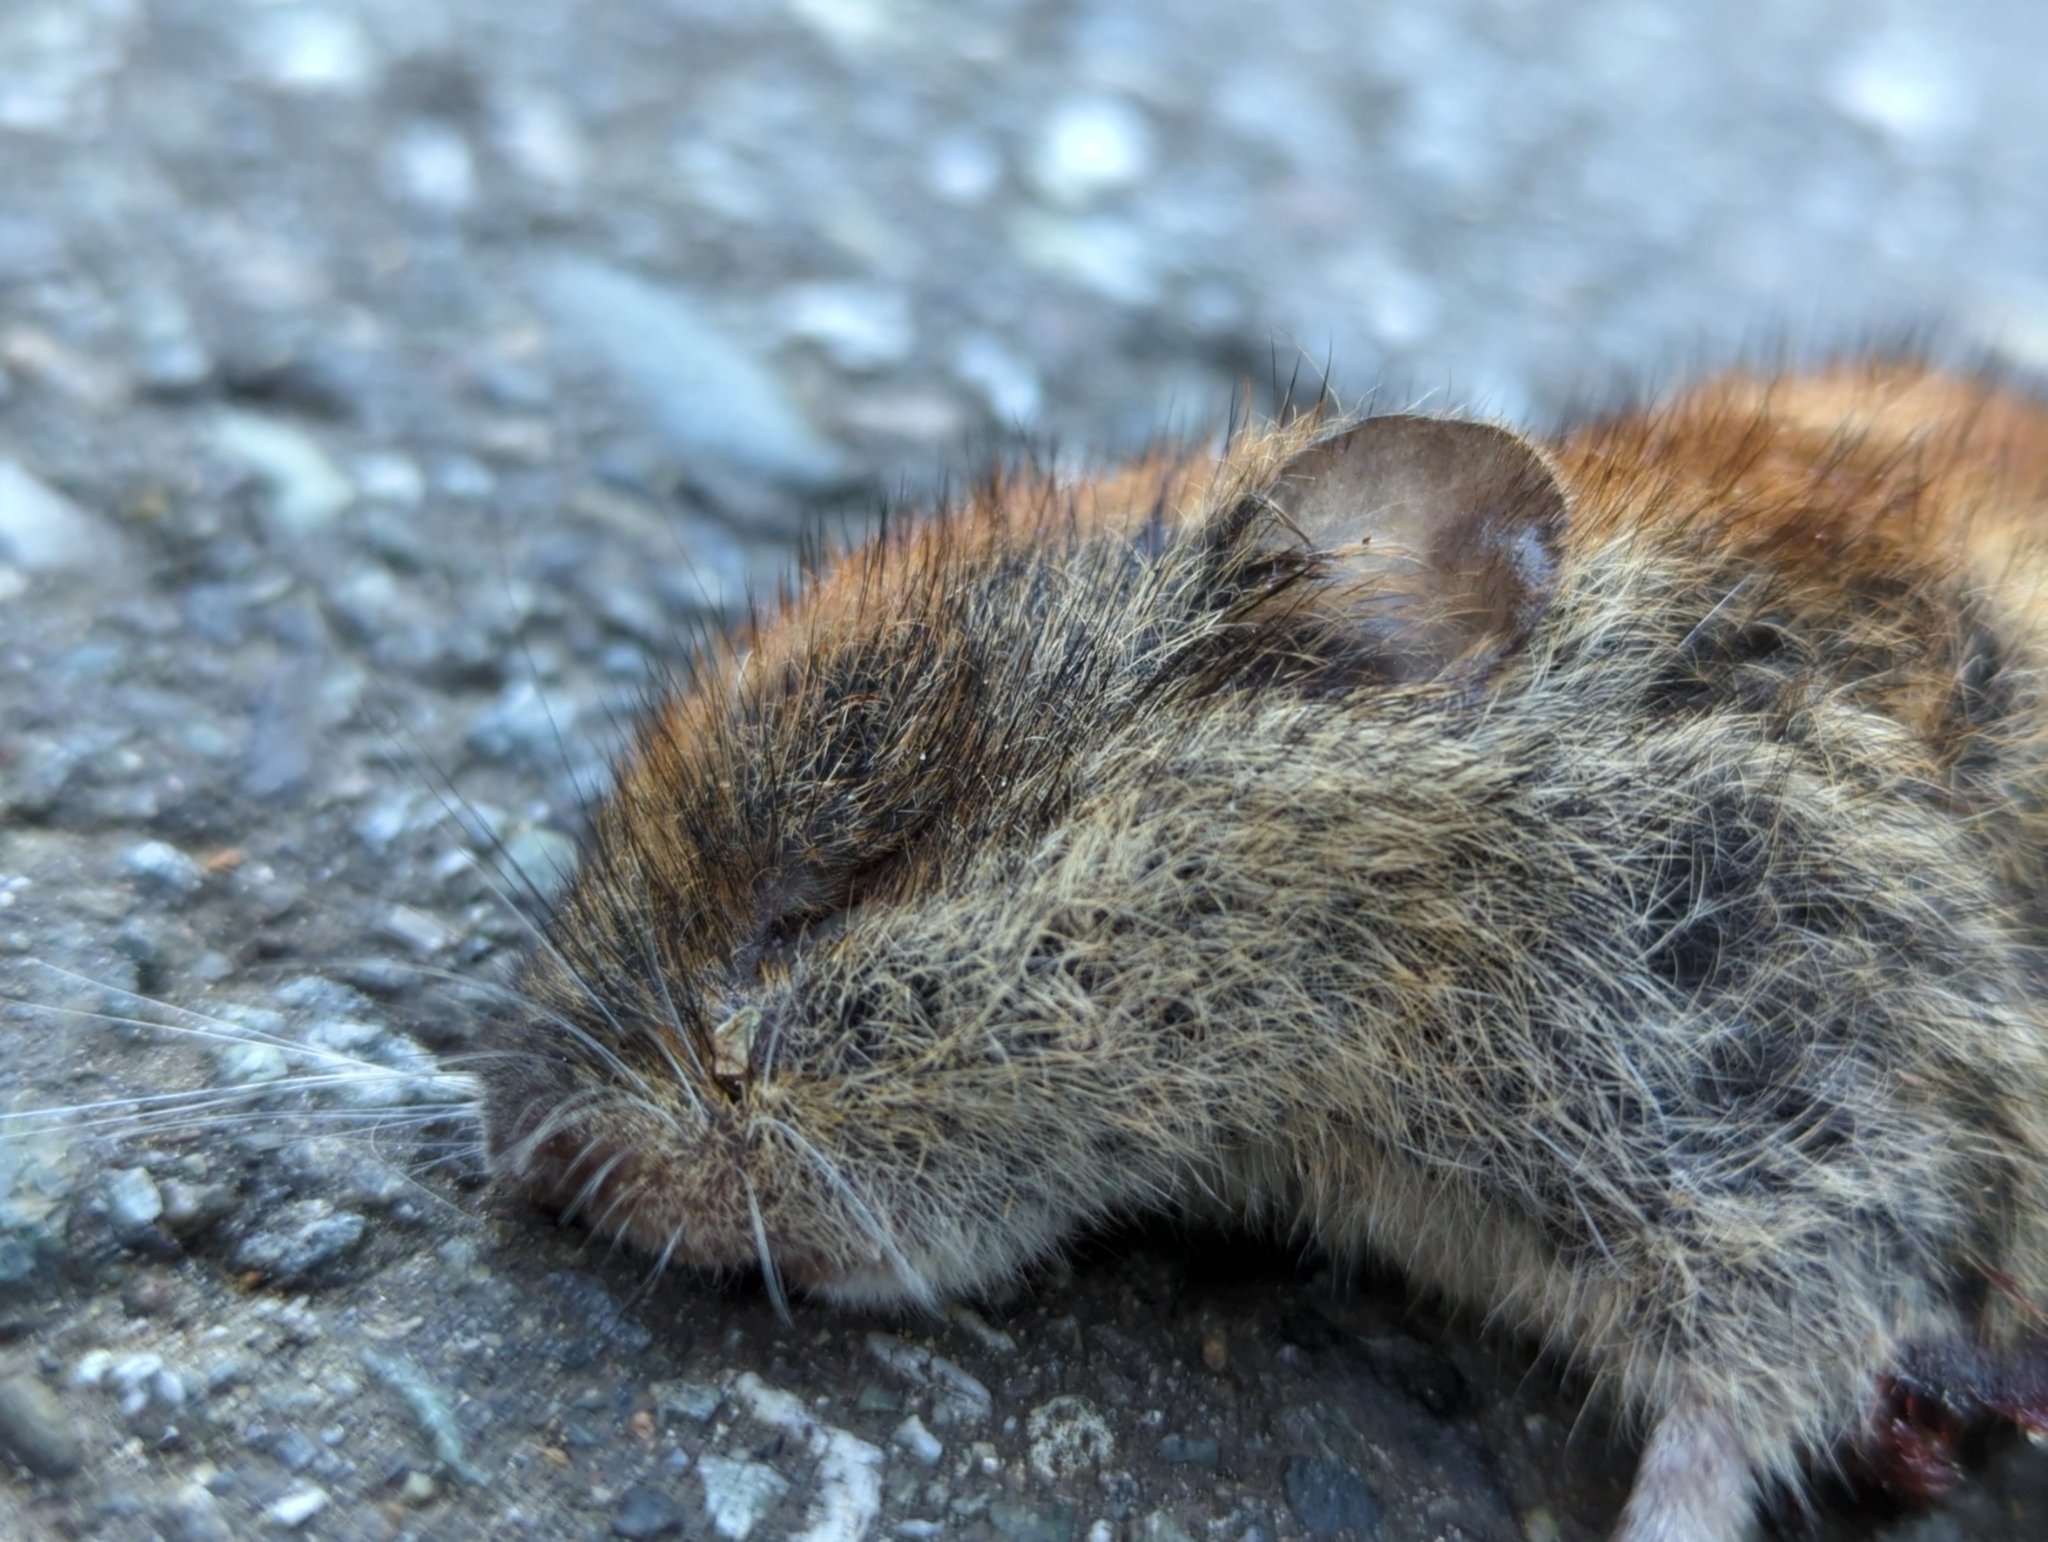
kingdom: Animalia
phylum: Chordata
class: Mammalia
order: Rodentia
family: Cricetidae
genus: Myodes
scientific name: Myodes rutilus
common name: Northern red-backed vole
